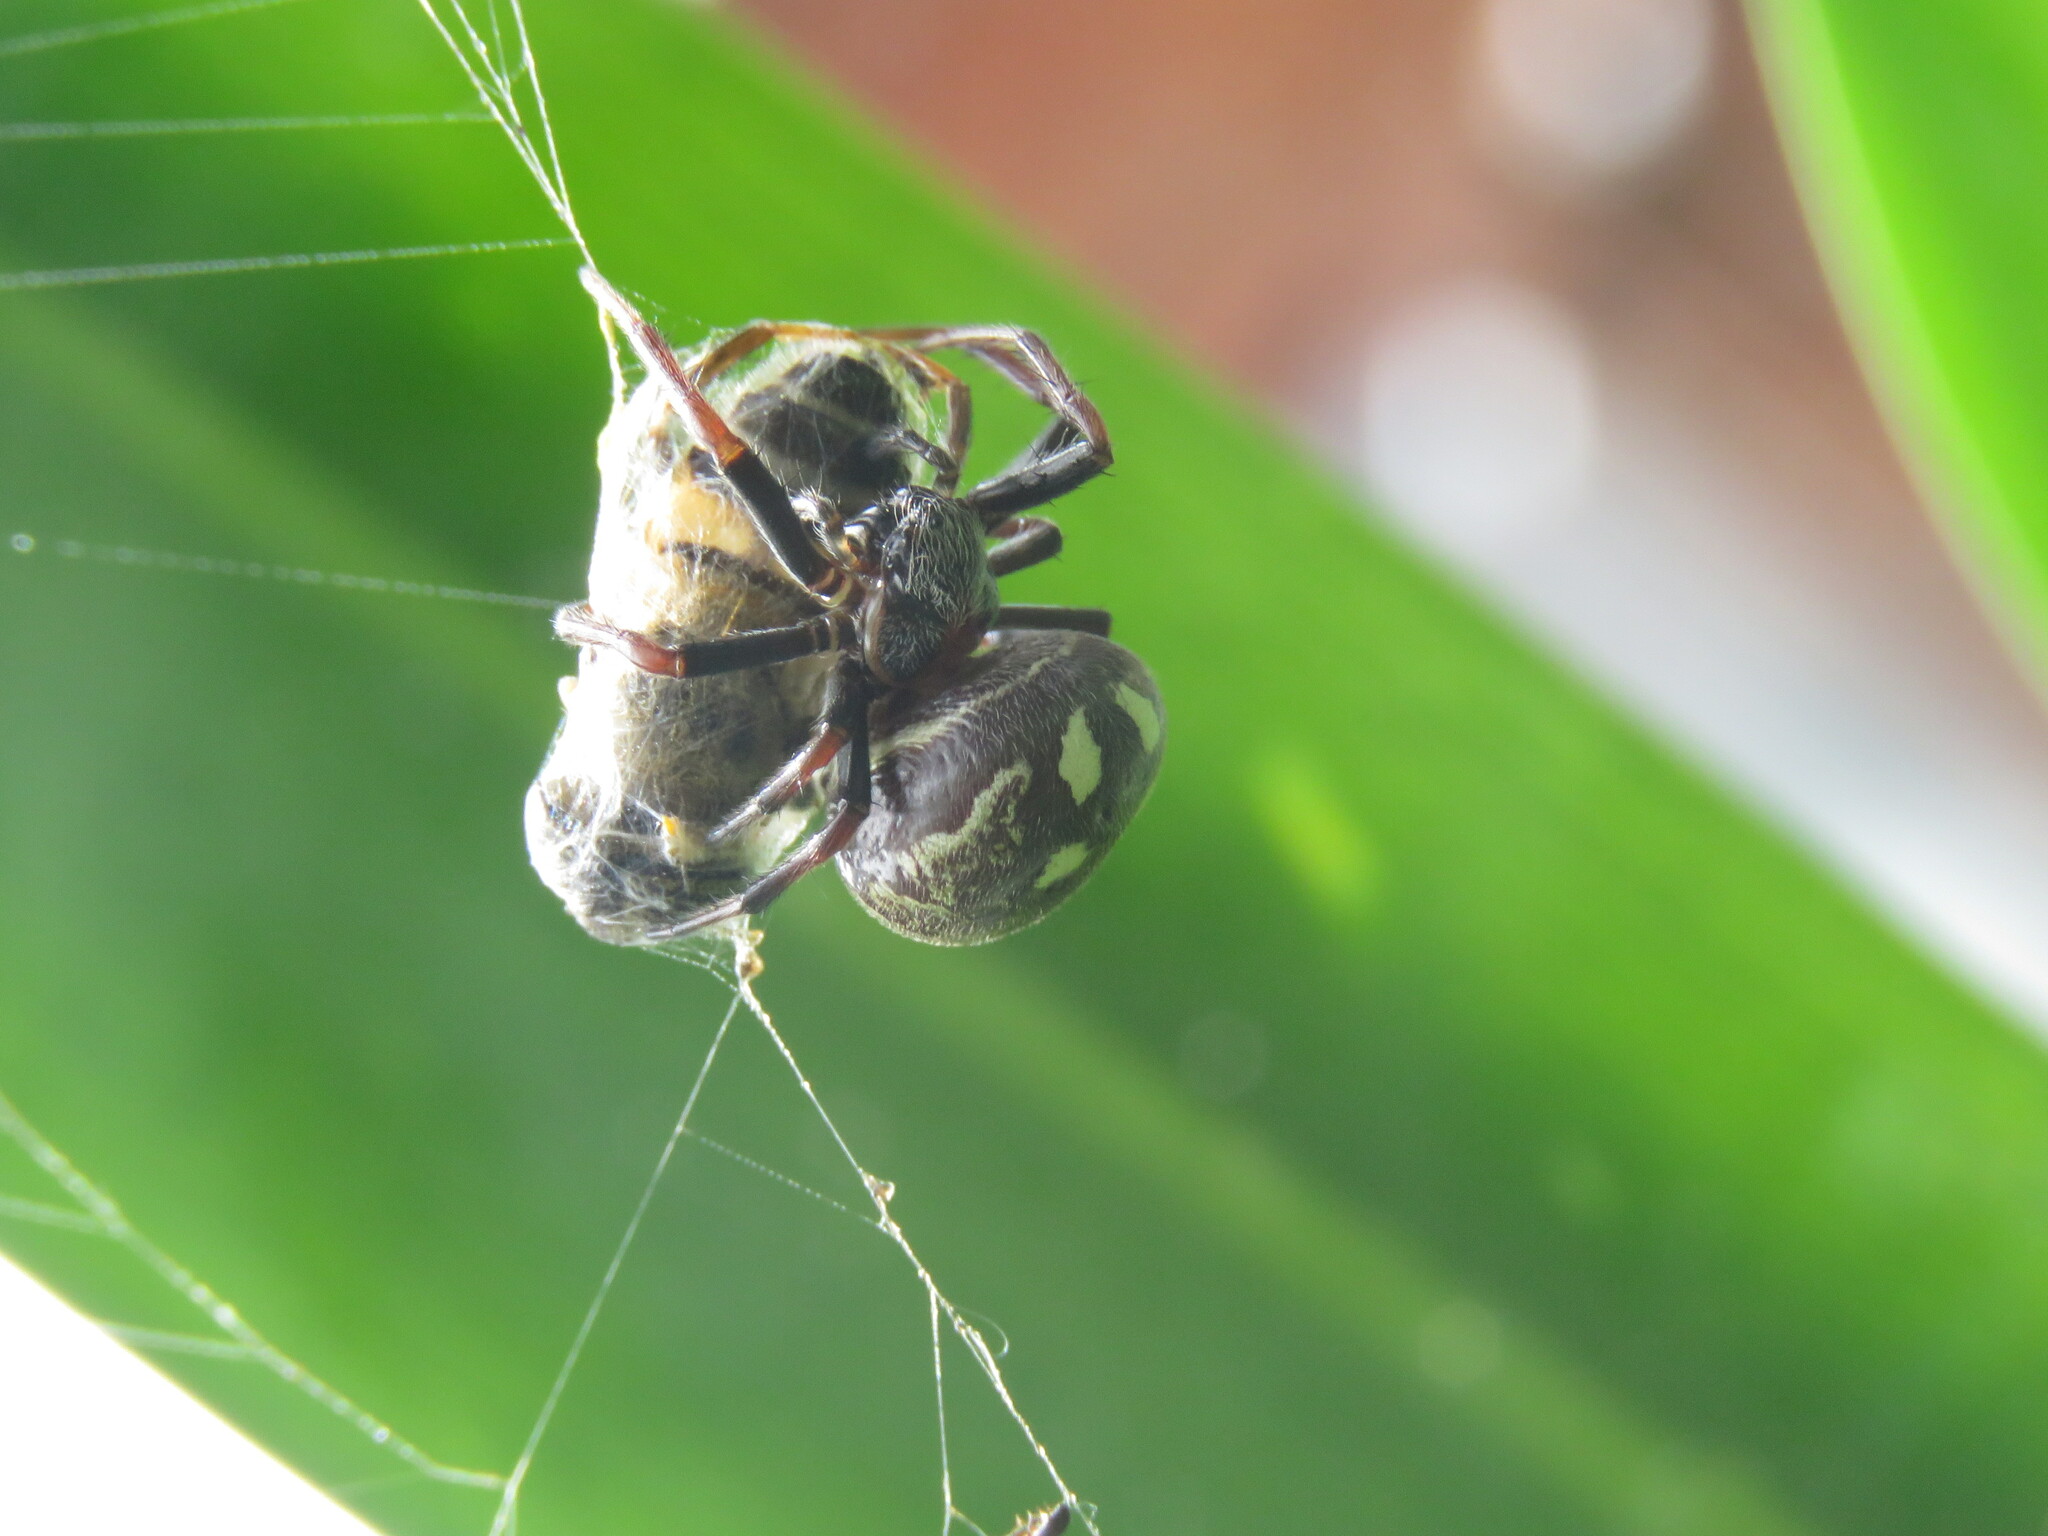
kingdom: Animalia
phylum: Arthropoda
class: Arachnida
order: Araneae
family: Araneidae
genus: Araneus
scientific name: Araneus granadensis
